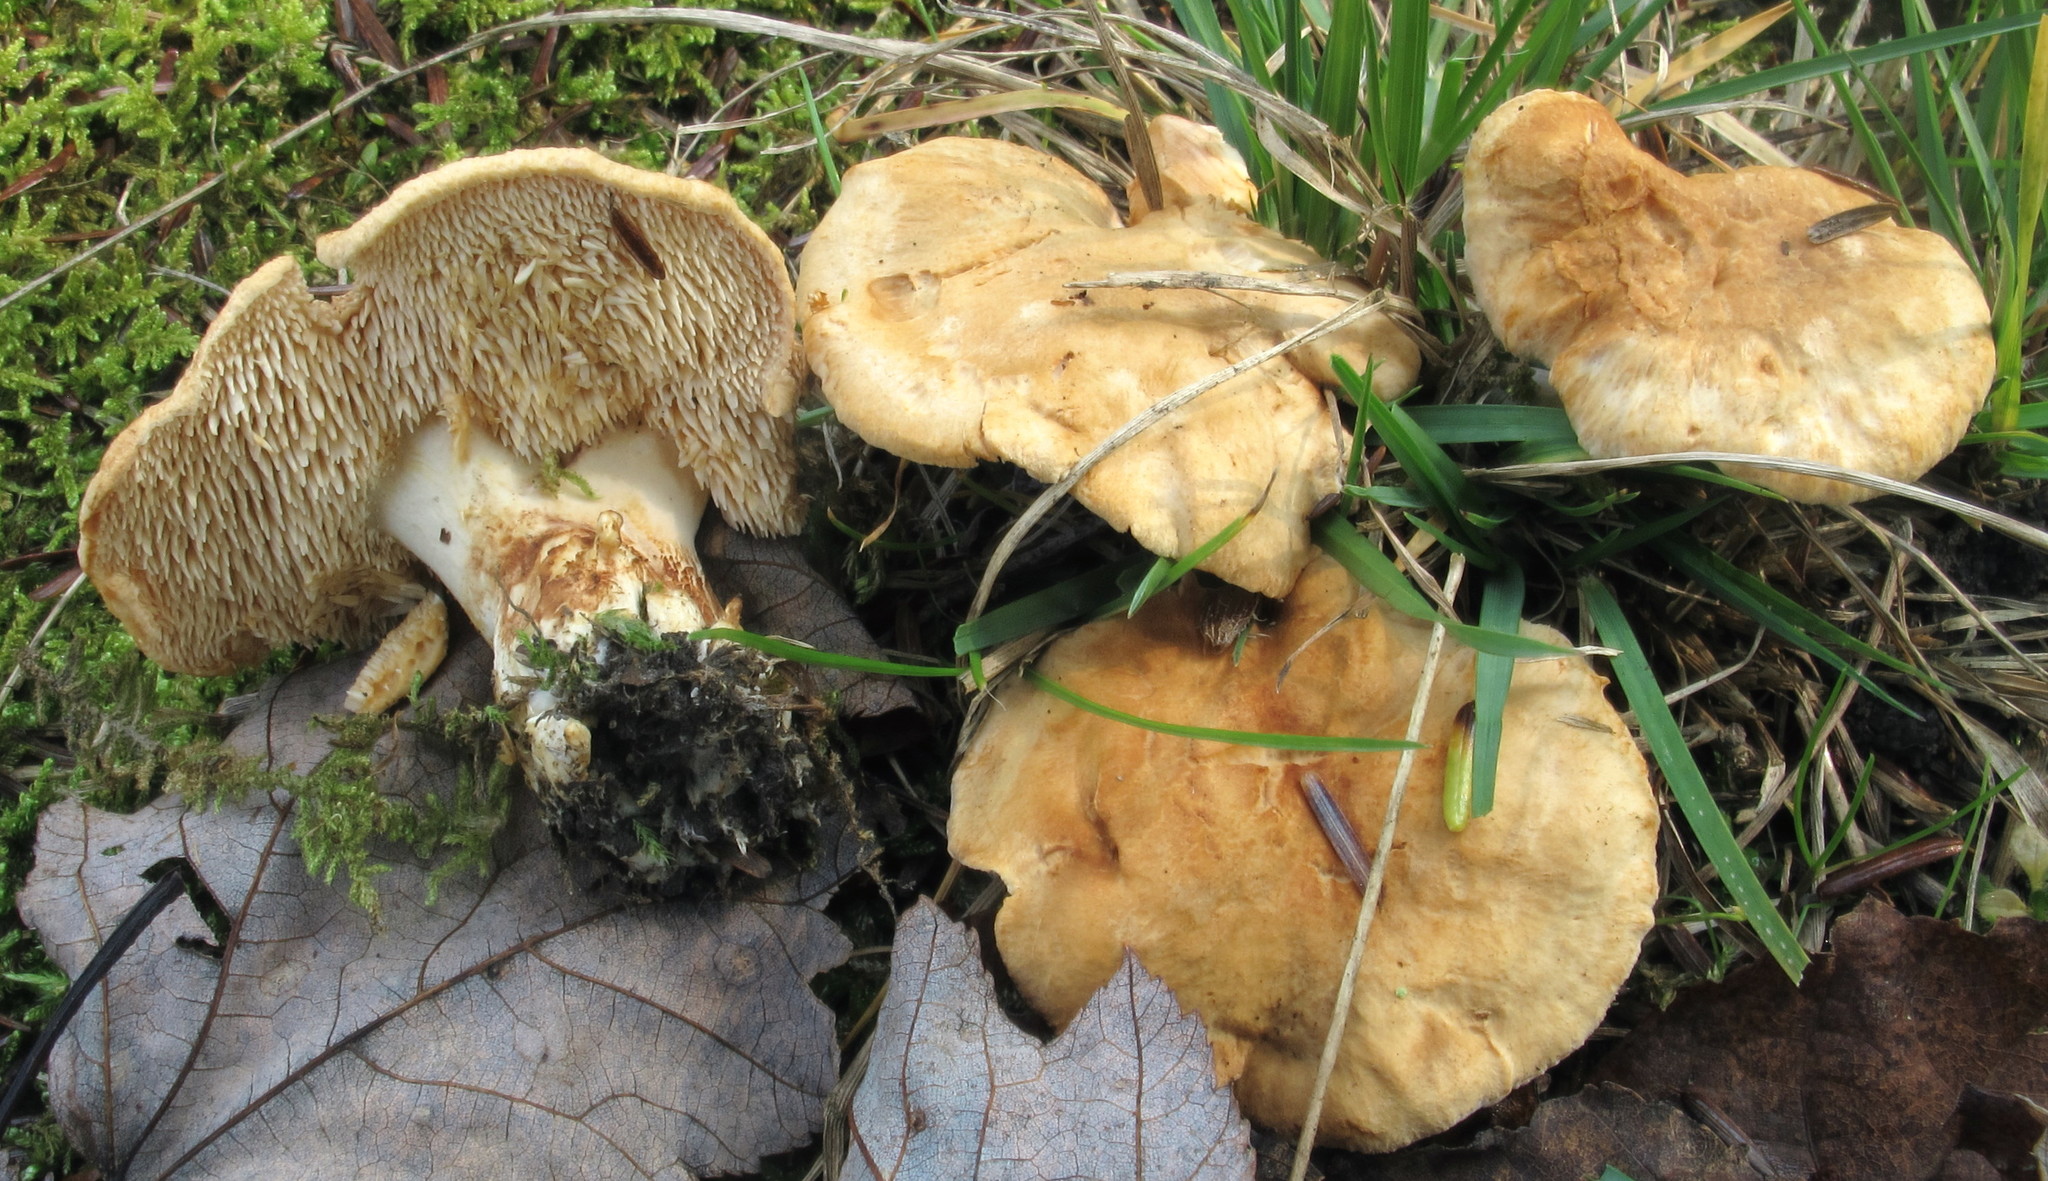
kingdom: Fungi
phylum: Basidiomycota
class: Agaricomycetes
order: Cantharellales
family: Hydnaceae
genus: Hydnum
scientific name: Hydnum umbilicatum
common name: Umbilicate hedgehog
